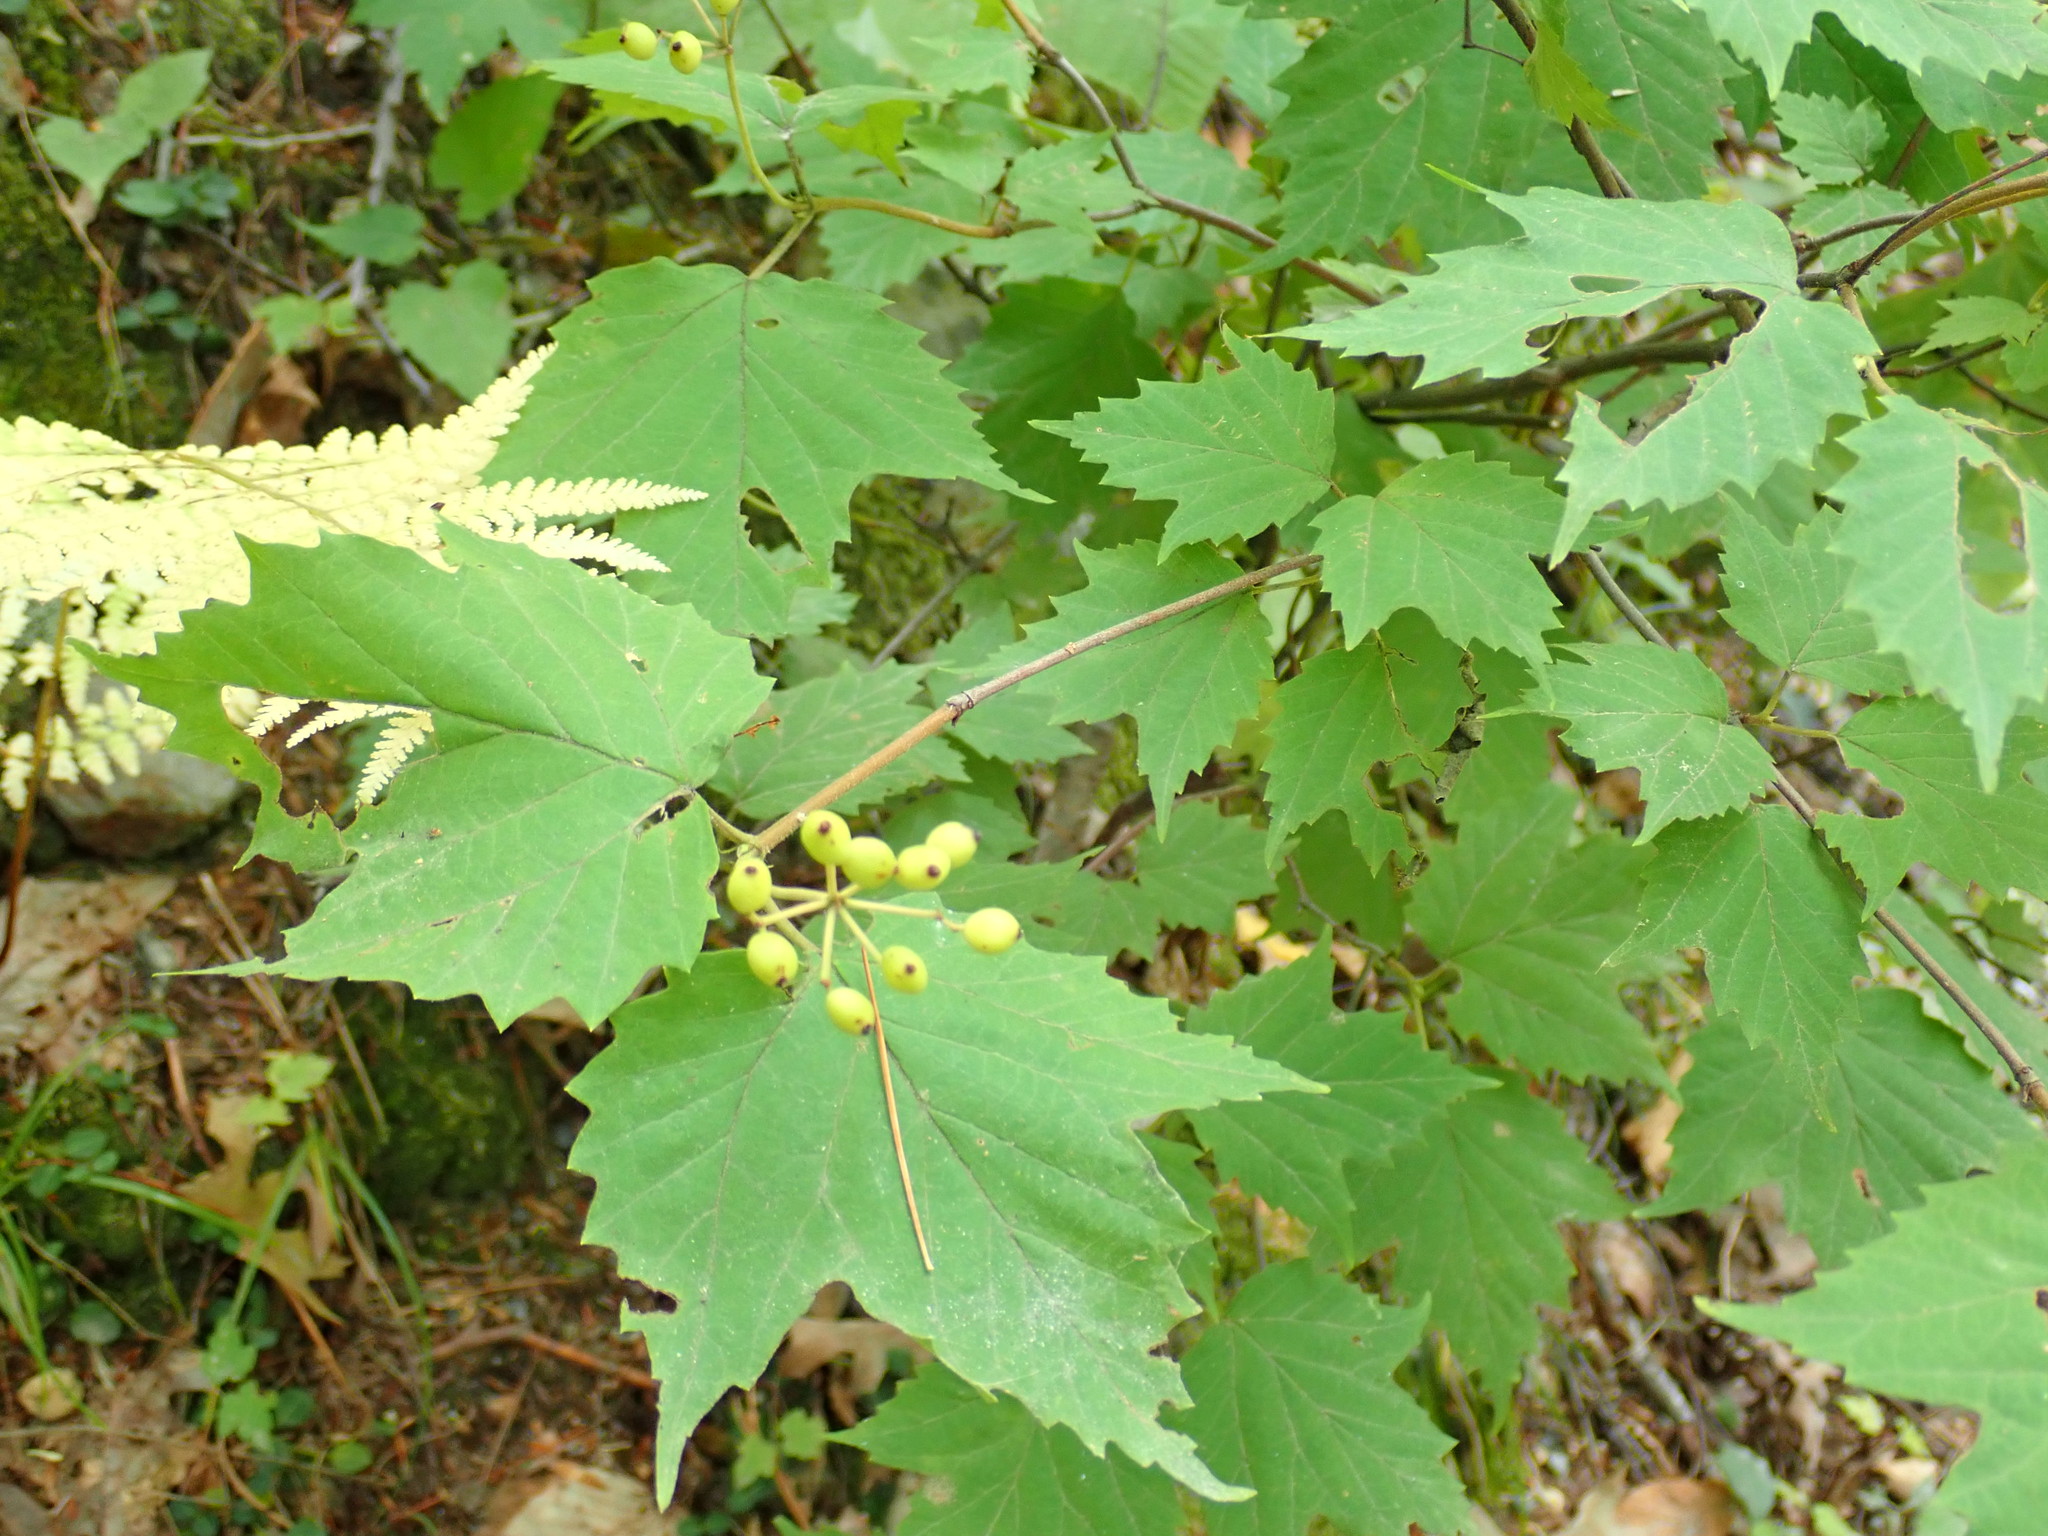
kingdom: Plantae
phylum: Tracheophyta
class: Magnoliopsida
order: Dipsacales
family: Viburnaceae
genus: Viburnum
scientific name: Viburnum acerifolium
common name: Dockmackie
